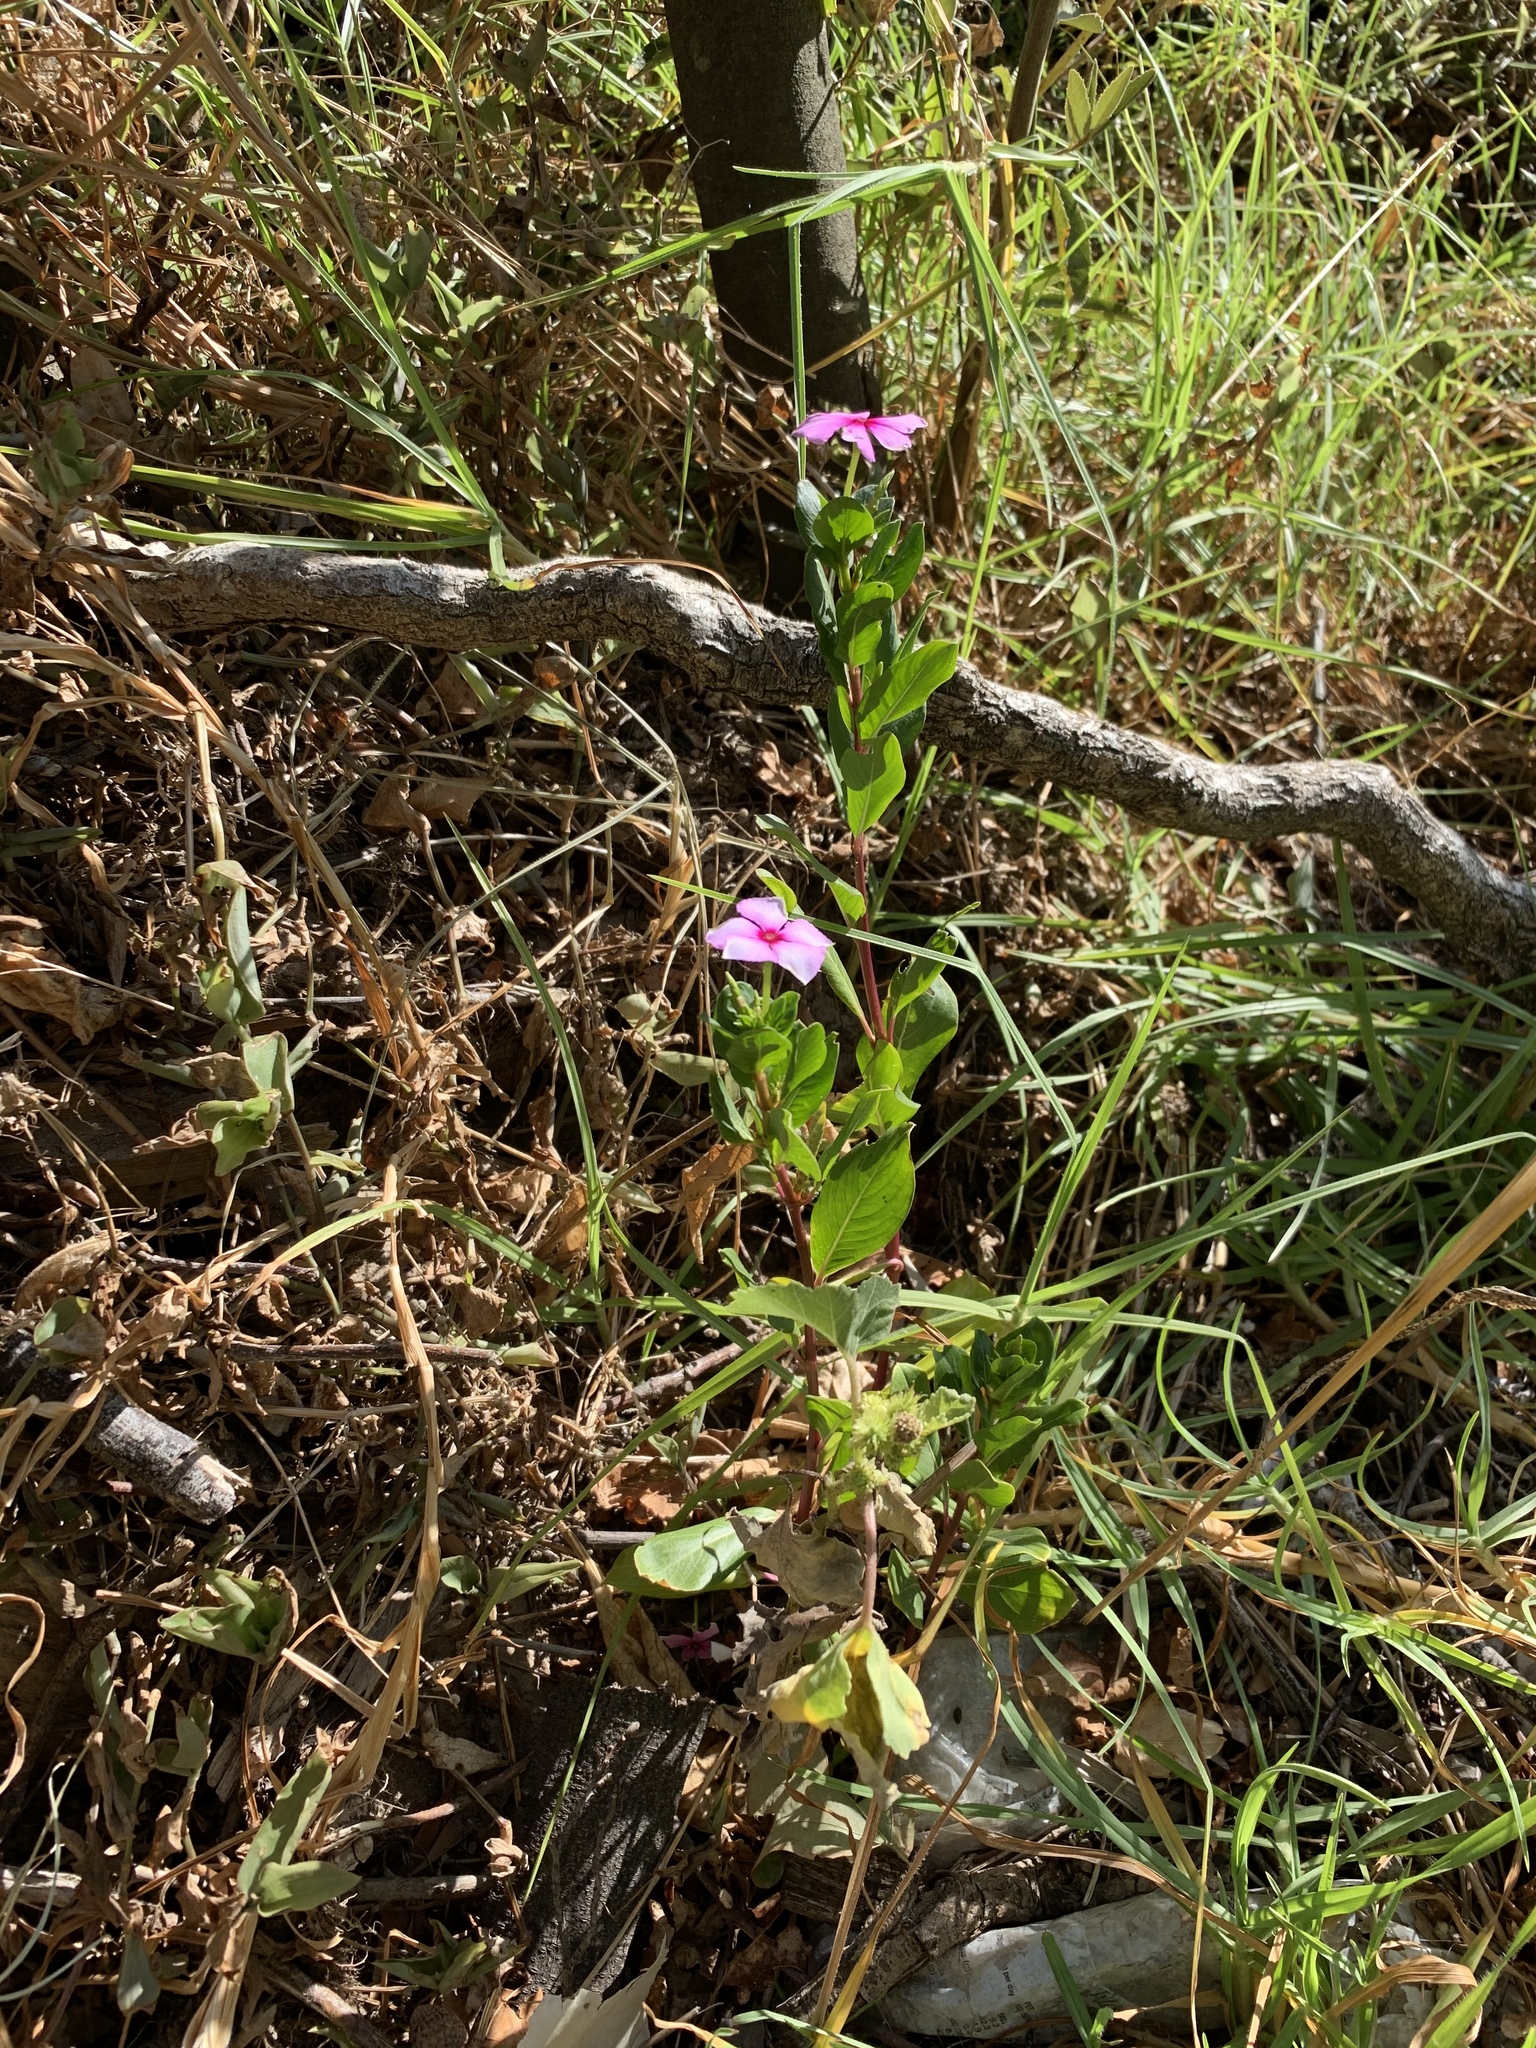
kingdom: Plantae
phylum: Tracheophyta
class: Magnoliopsida
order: Gentianales
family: Apocynaceae
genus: Catharanthus
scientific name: Catharanthus roseus
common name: Madagascar periwinkle
